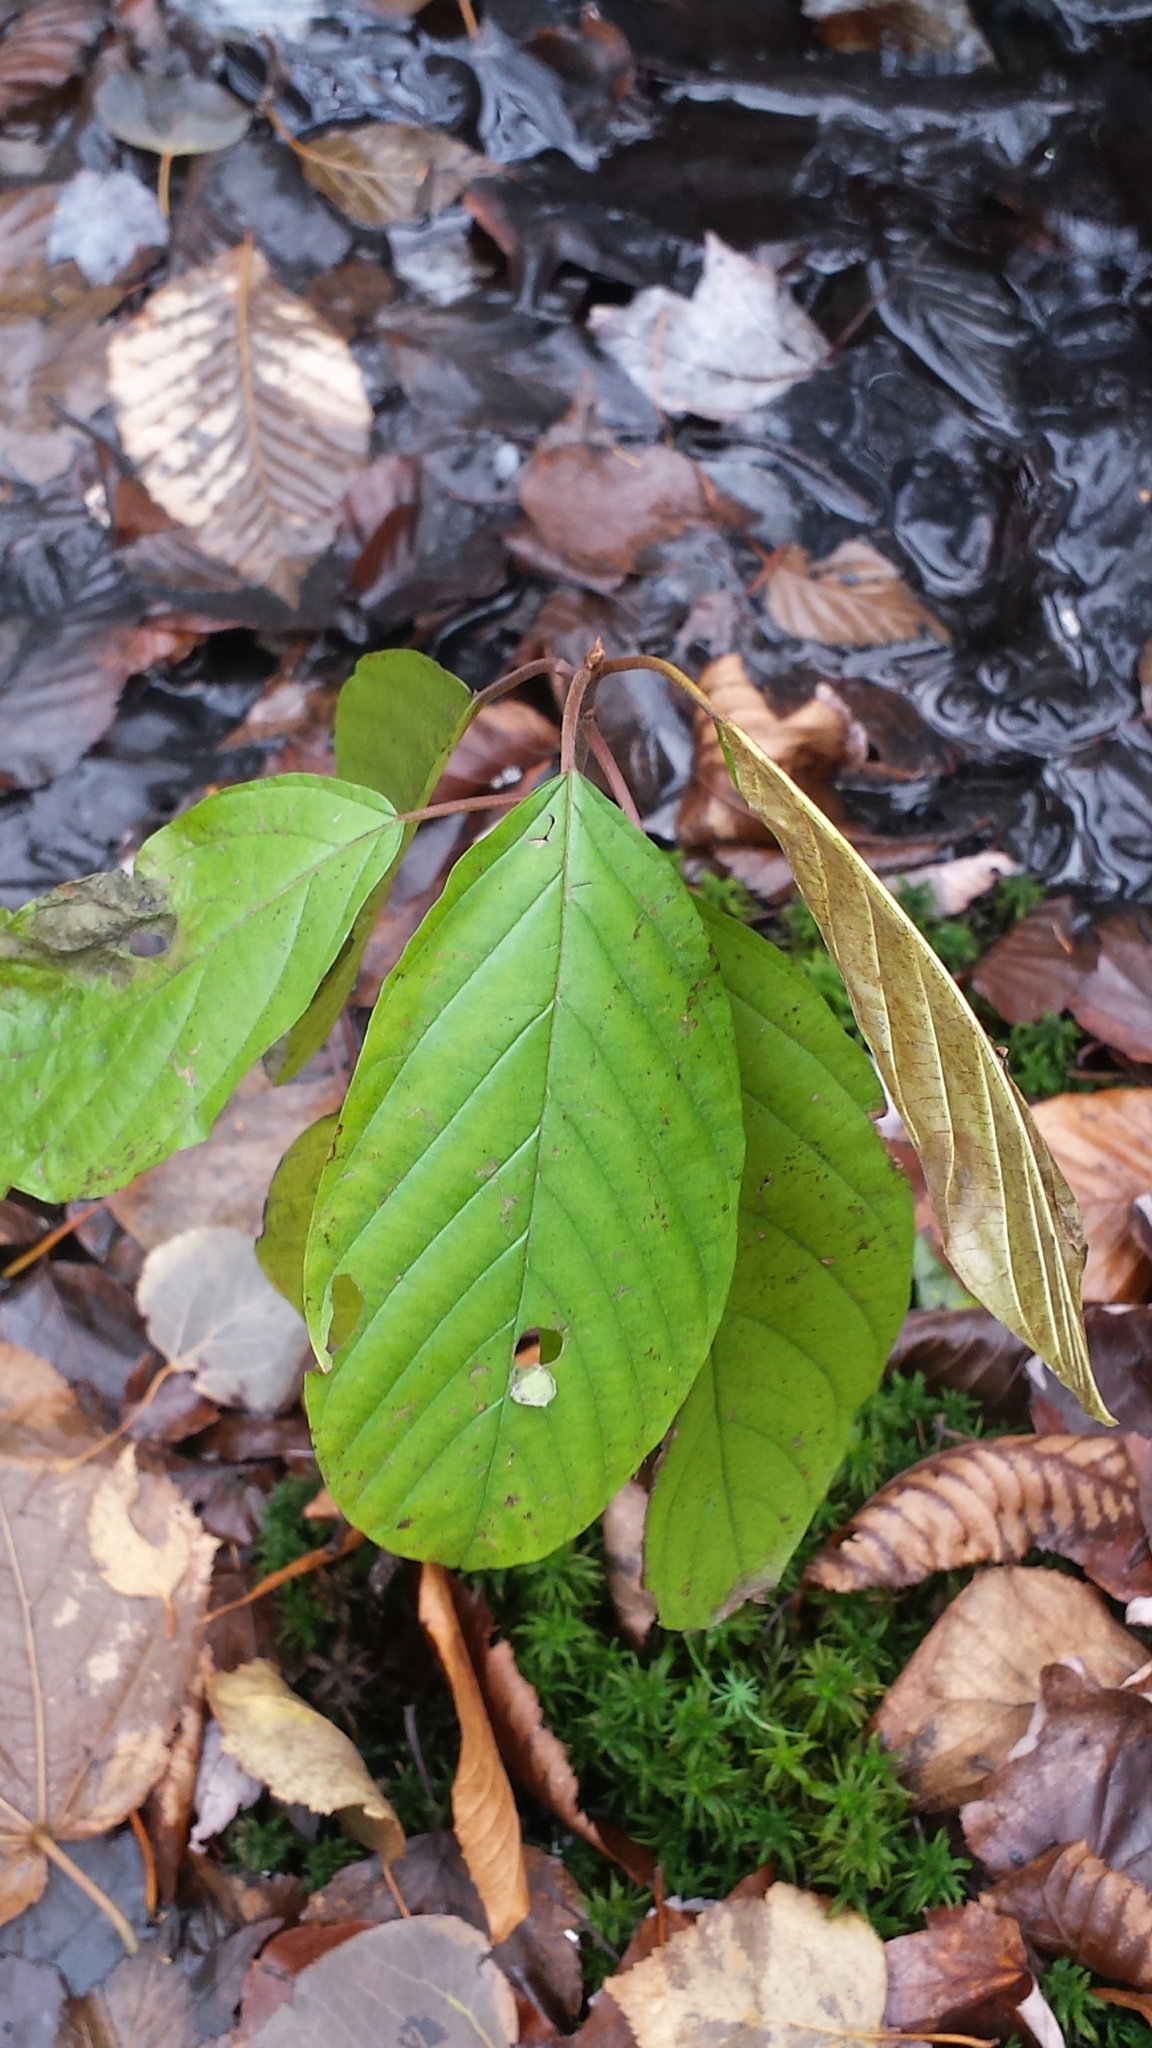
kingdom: Plantae
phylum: Tracheophyta
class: Magnoliopsida
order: Rosales
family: Rhamnaceae
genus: Frangula
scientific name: Frangula alnus
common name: Alder buckthorn
